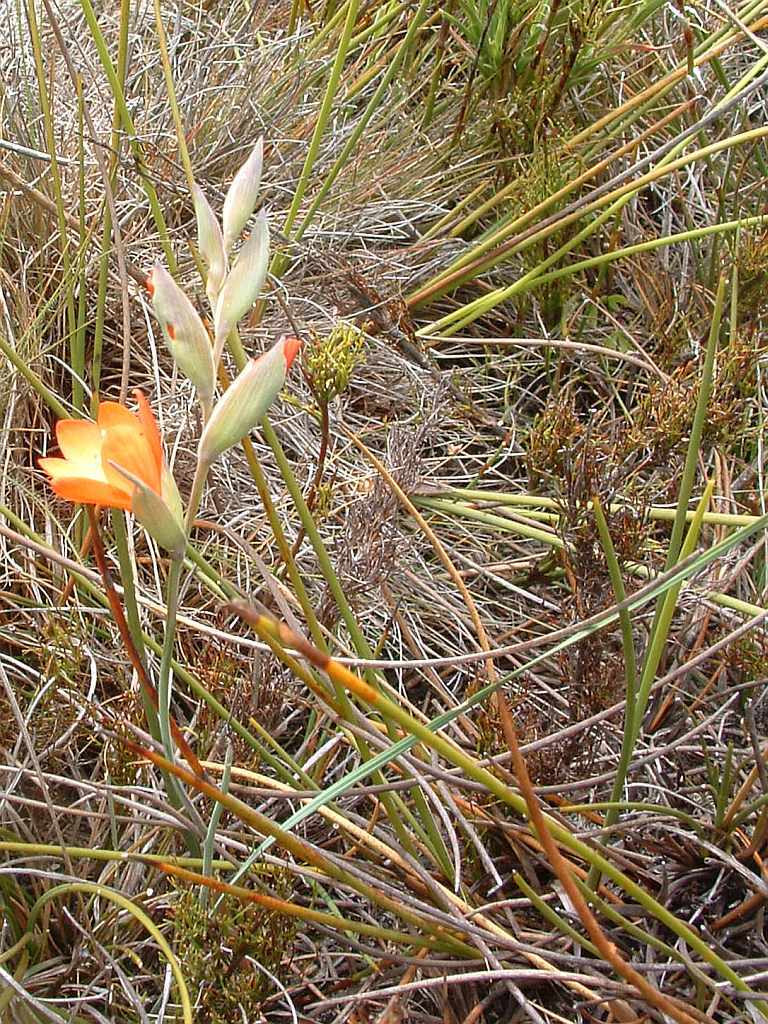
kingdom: Plantae
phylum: Tracheophyta
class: Liliopsida
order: Asparagales
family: Iridaceae
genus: Gladiolus
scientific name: Gladiolus brevitubus
